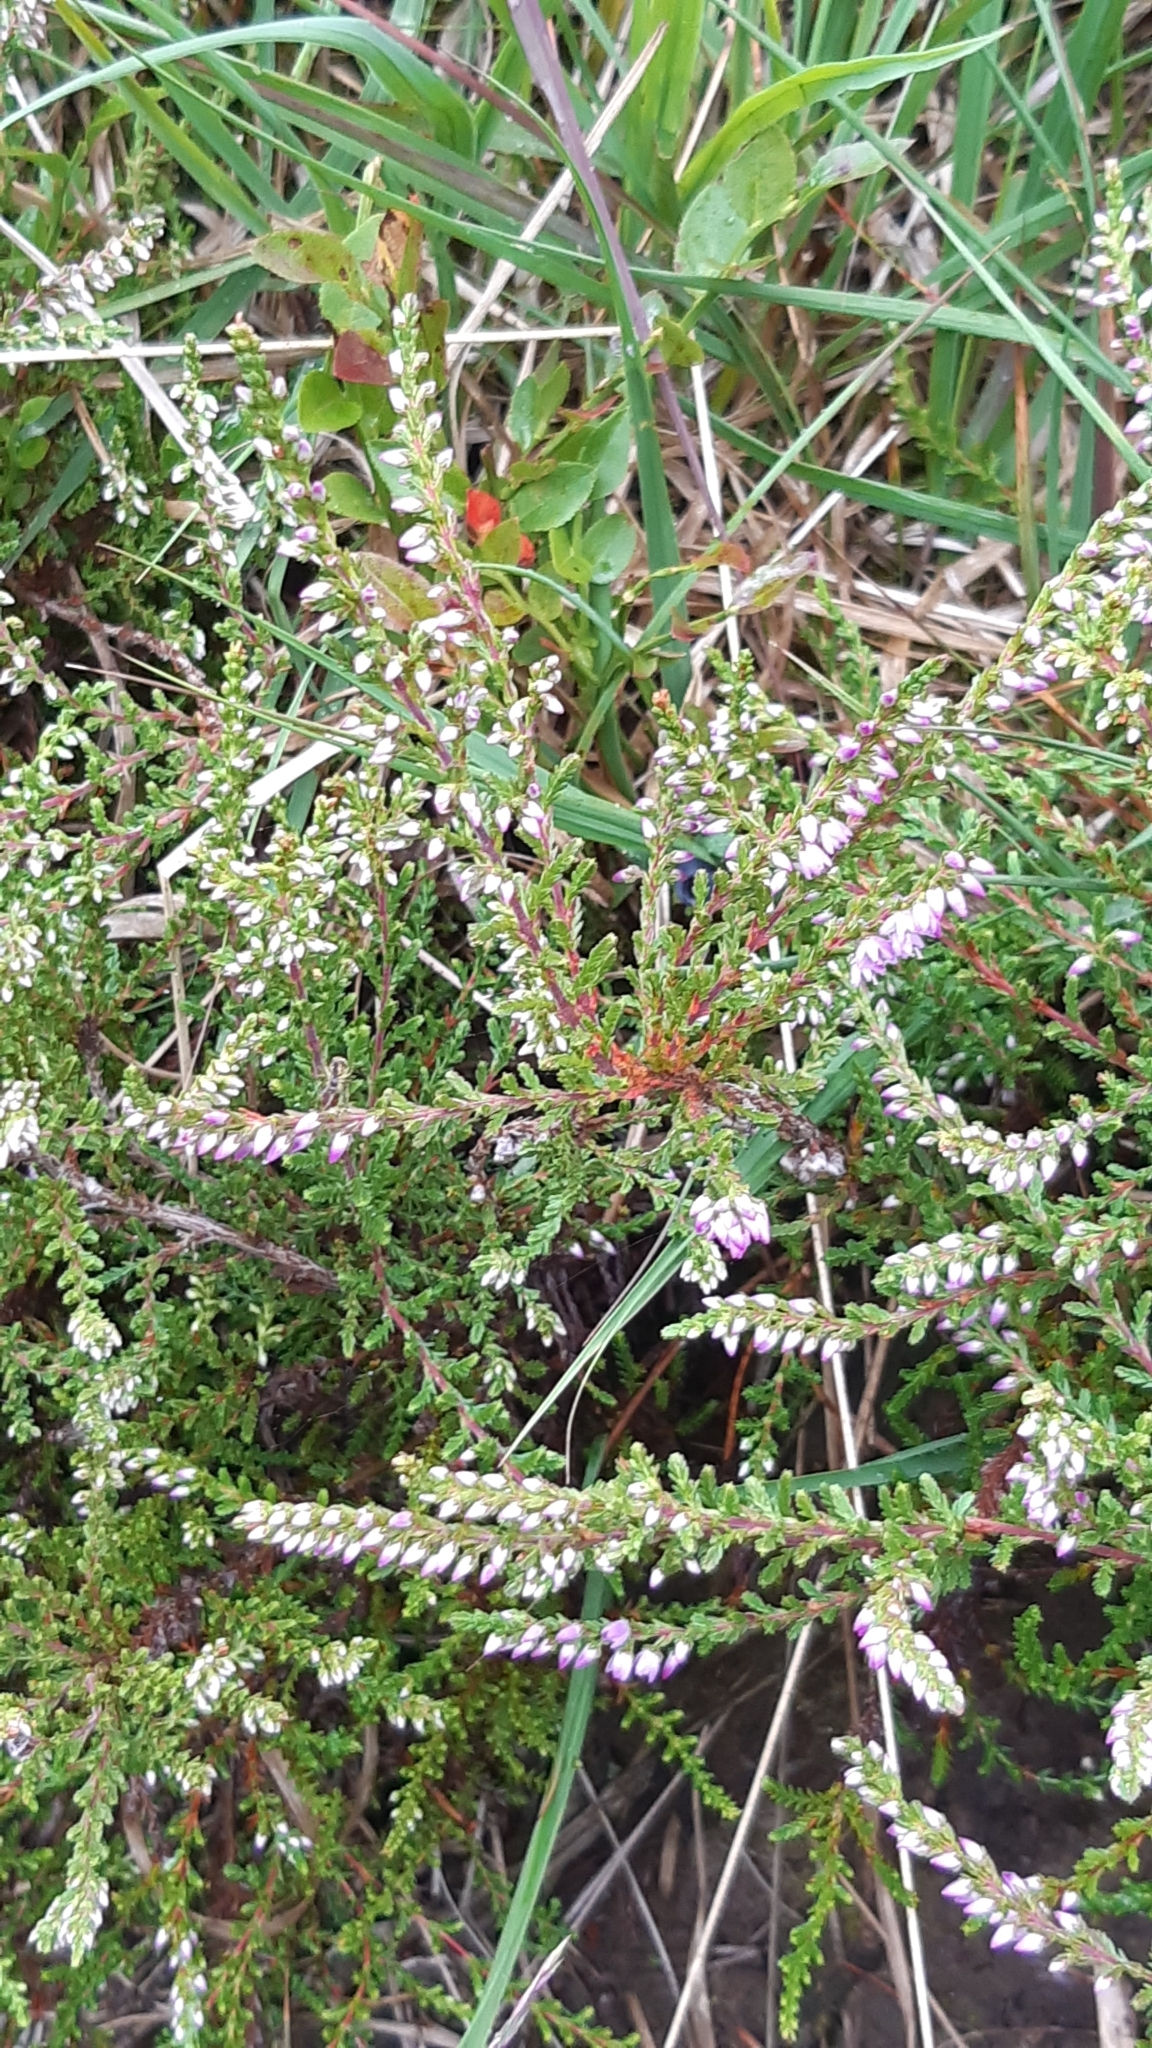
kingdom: Plantae
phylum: Tracheophyta
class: Magnoliopsida
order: Ericales
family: Ericaceae
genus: Calluna
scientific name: Calluna vulgaris
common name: Heather
